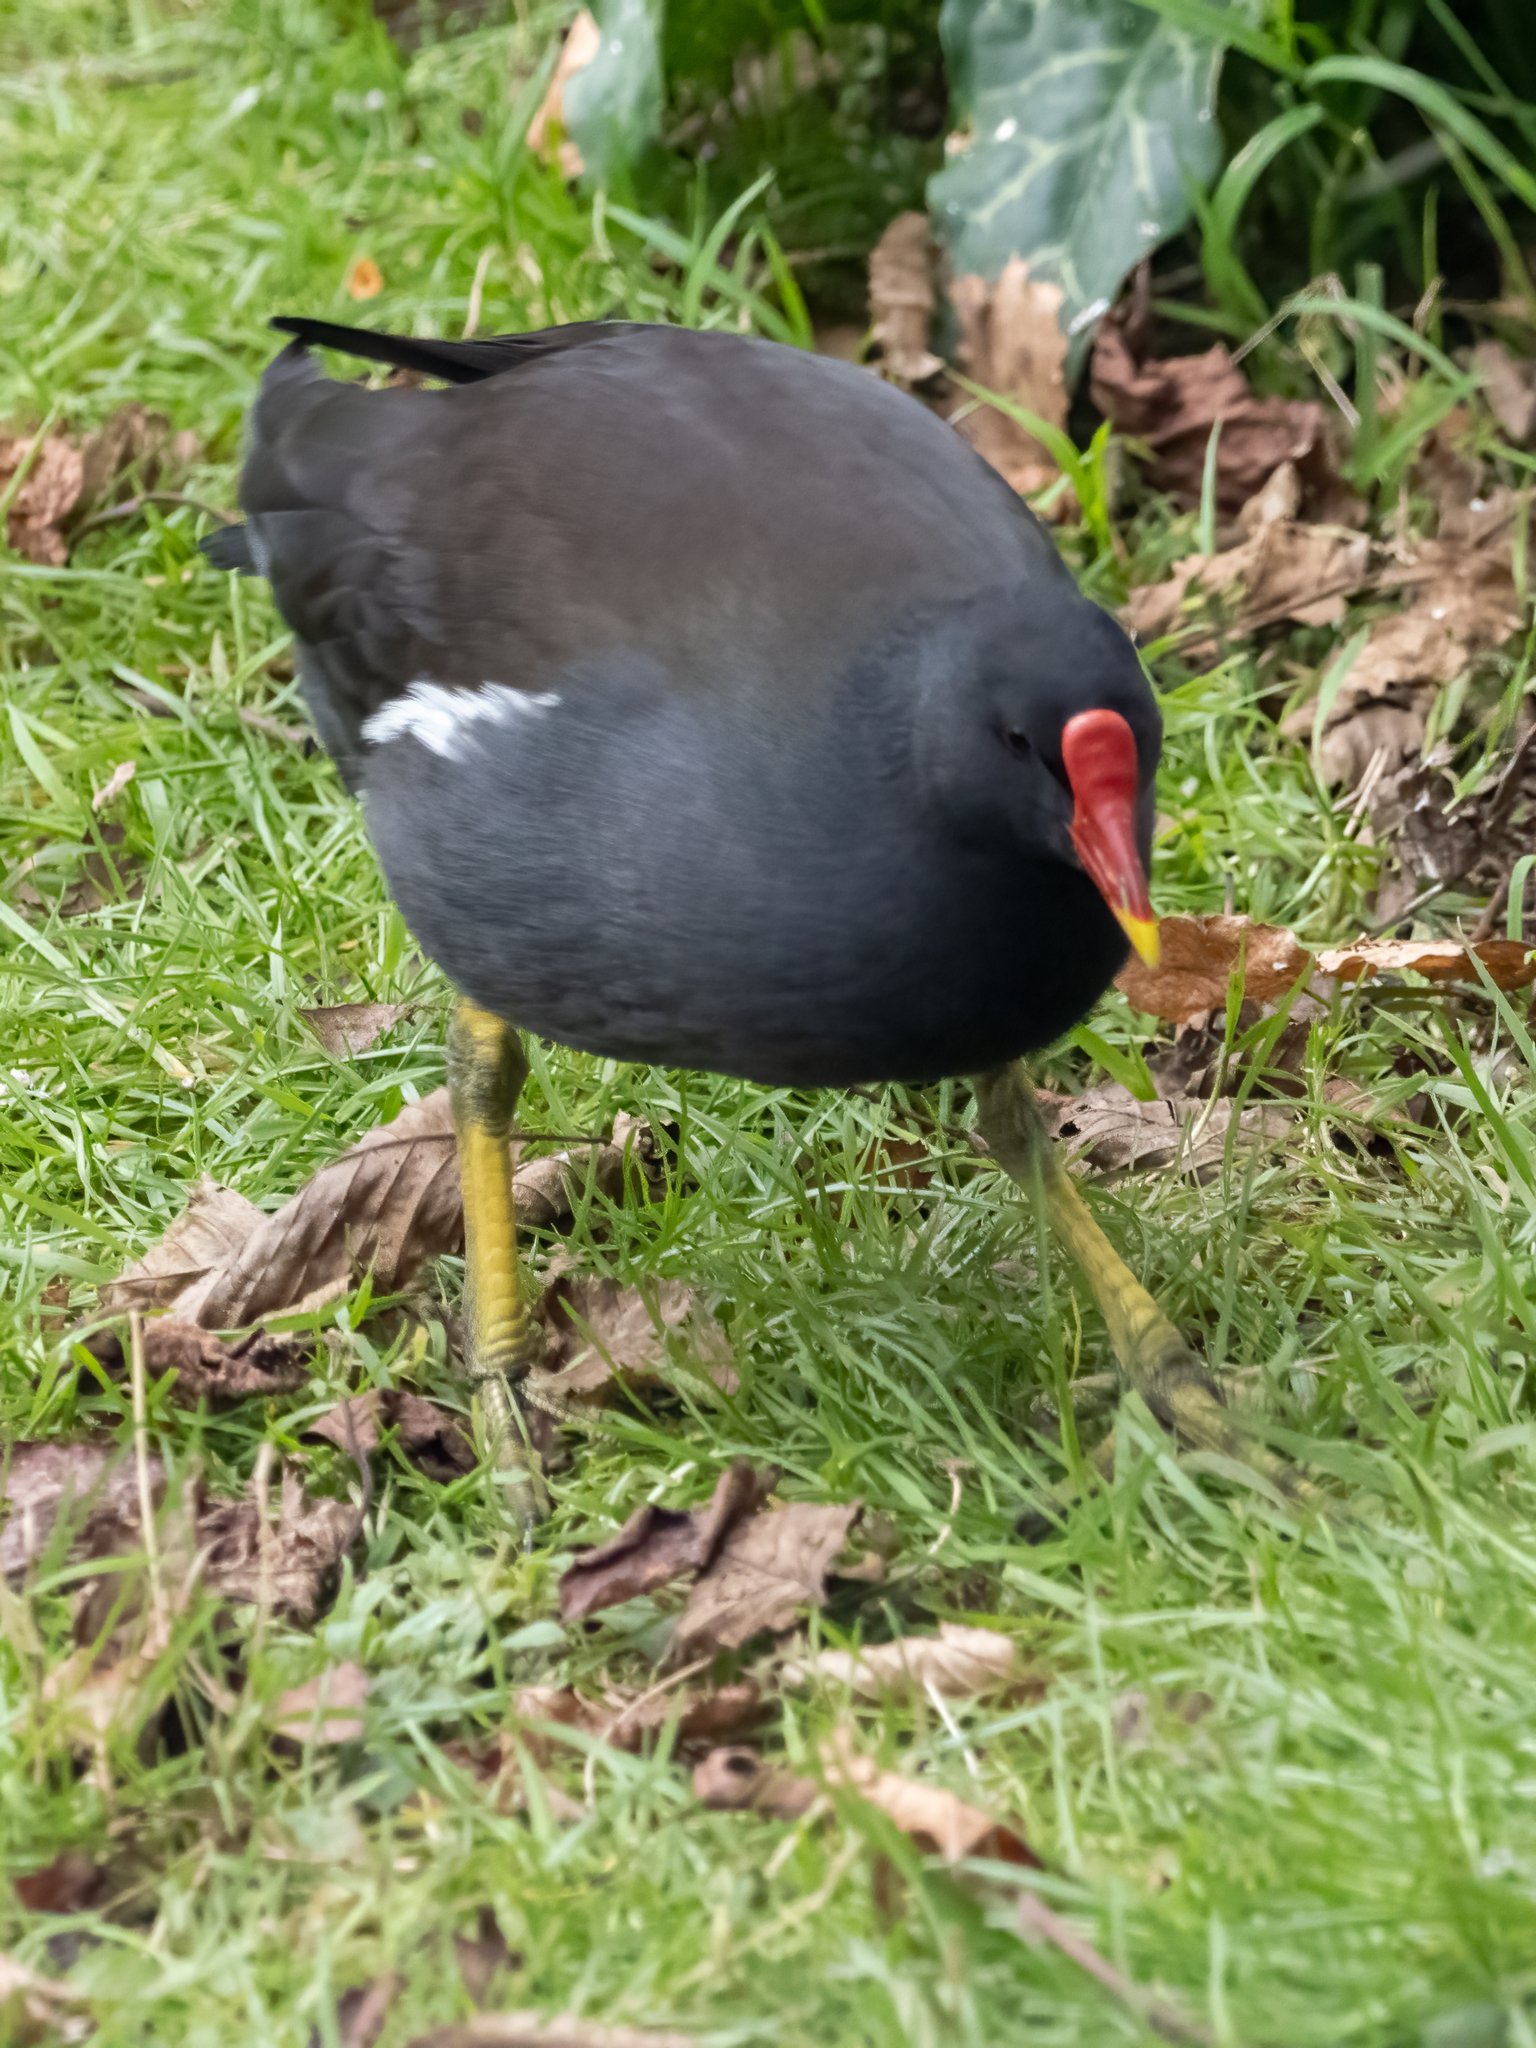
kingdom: Animalia
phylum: Chordata
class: Aves
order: Gruiformes
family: Rallidae
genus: Gallinula
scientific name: Gallinula chloropus
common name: Common moorhen
